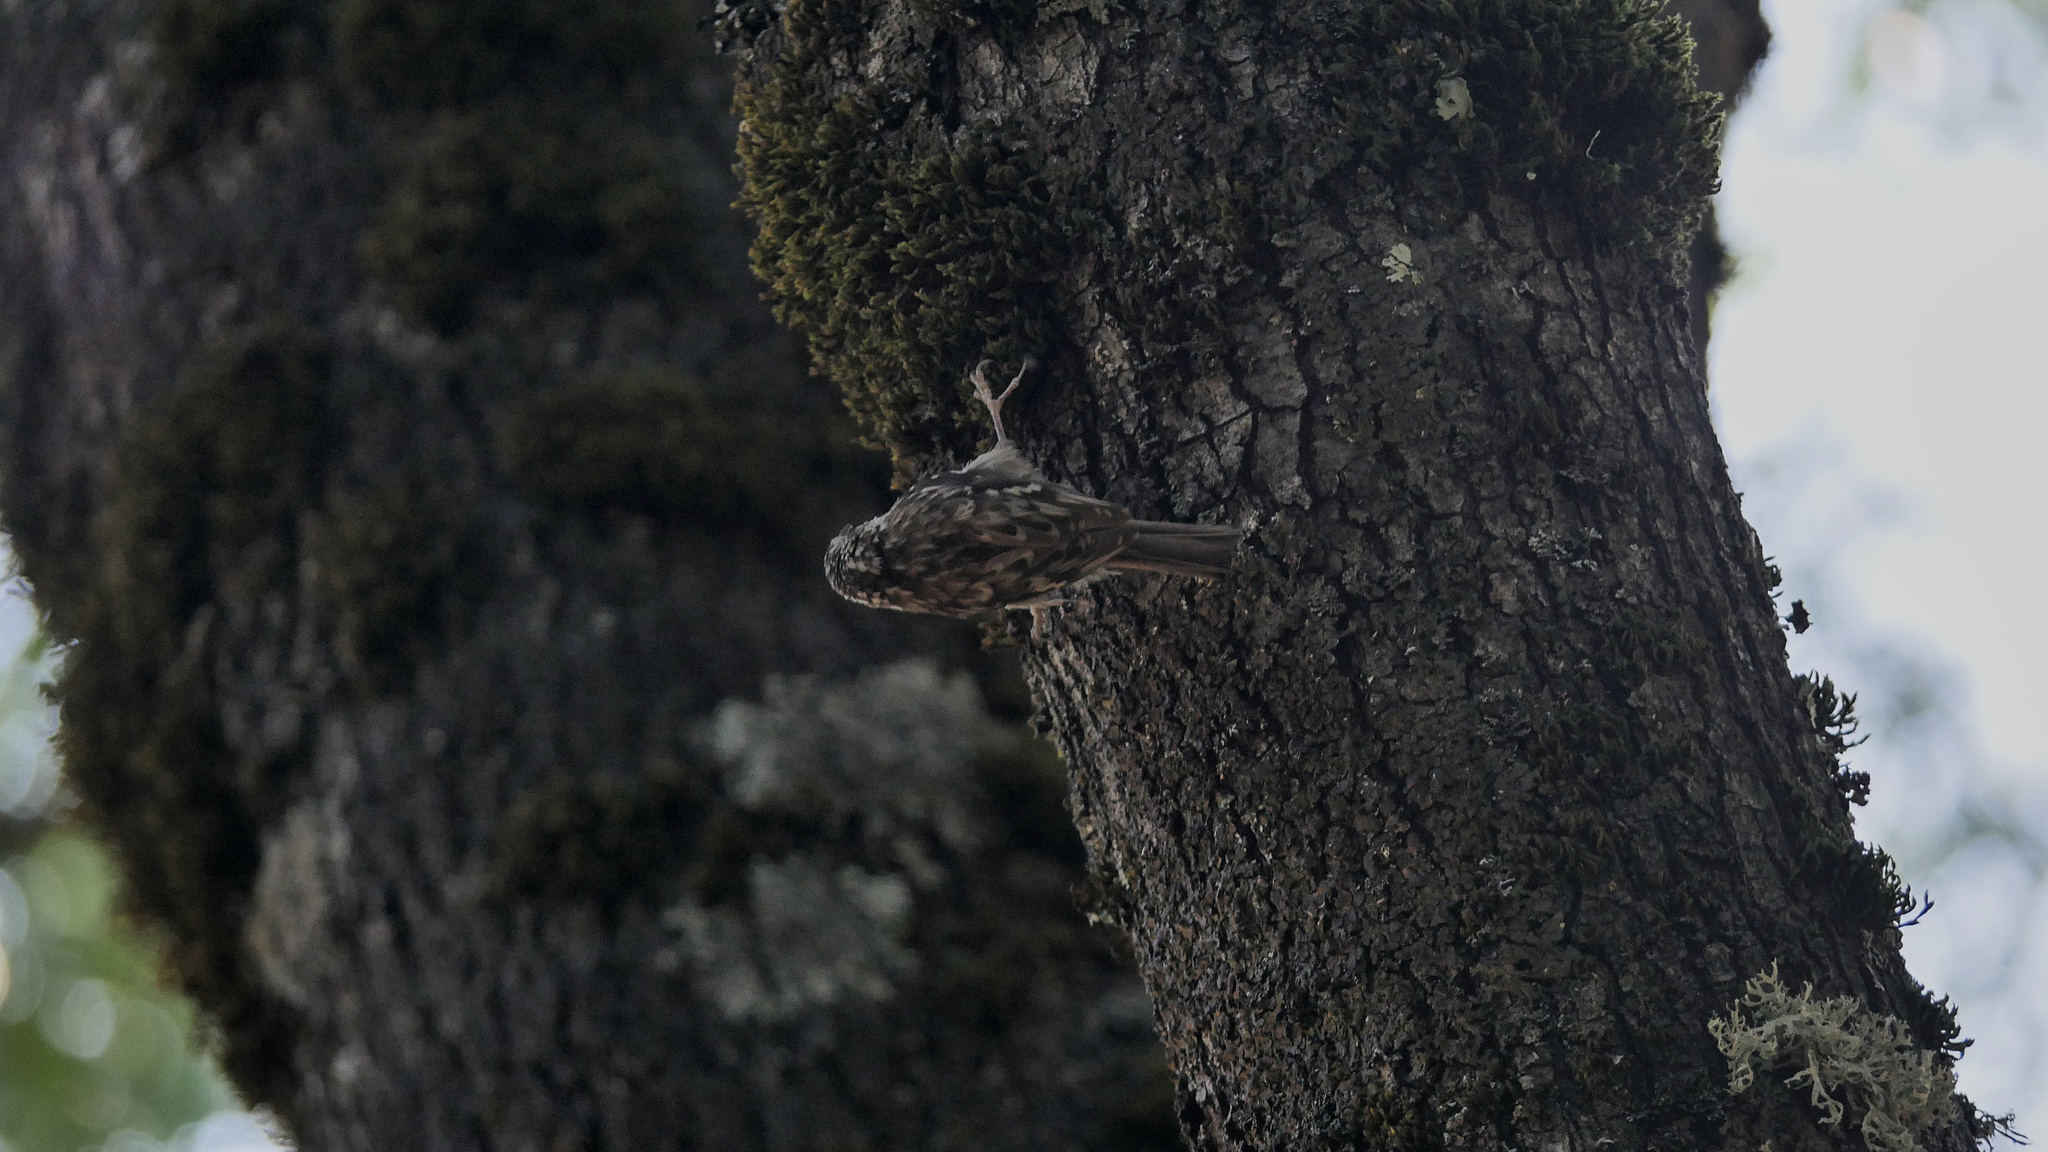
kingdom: Animalia
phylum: Chordata
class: Aves
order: Passeriformes
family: Certhiidae
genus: Certhia
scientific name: Certhia americana
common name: Brown creeper
